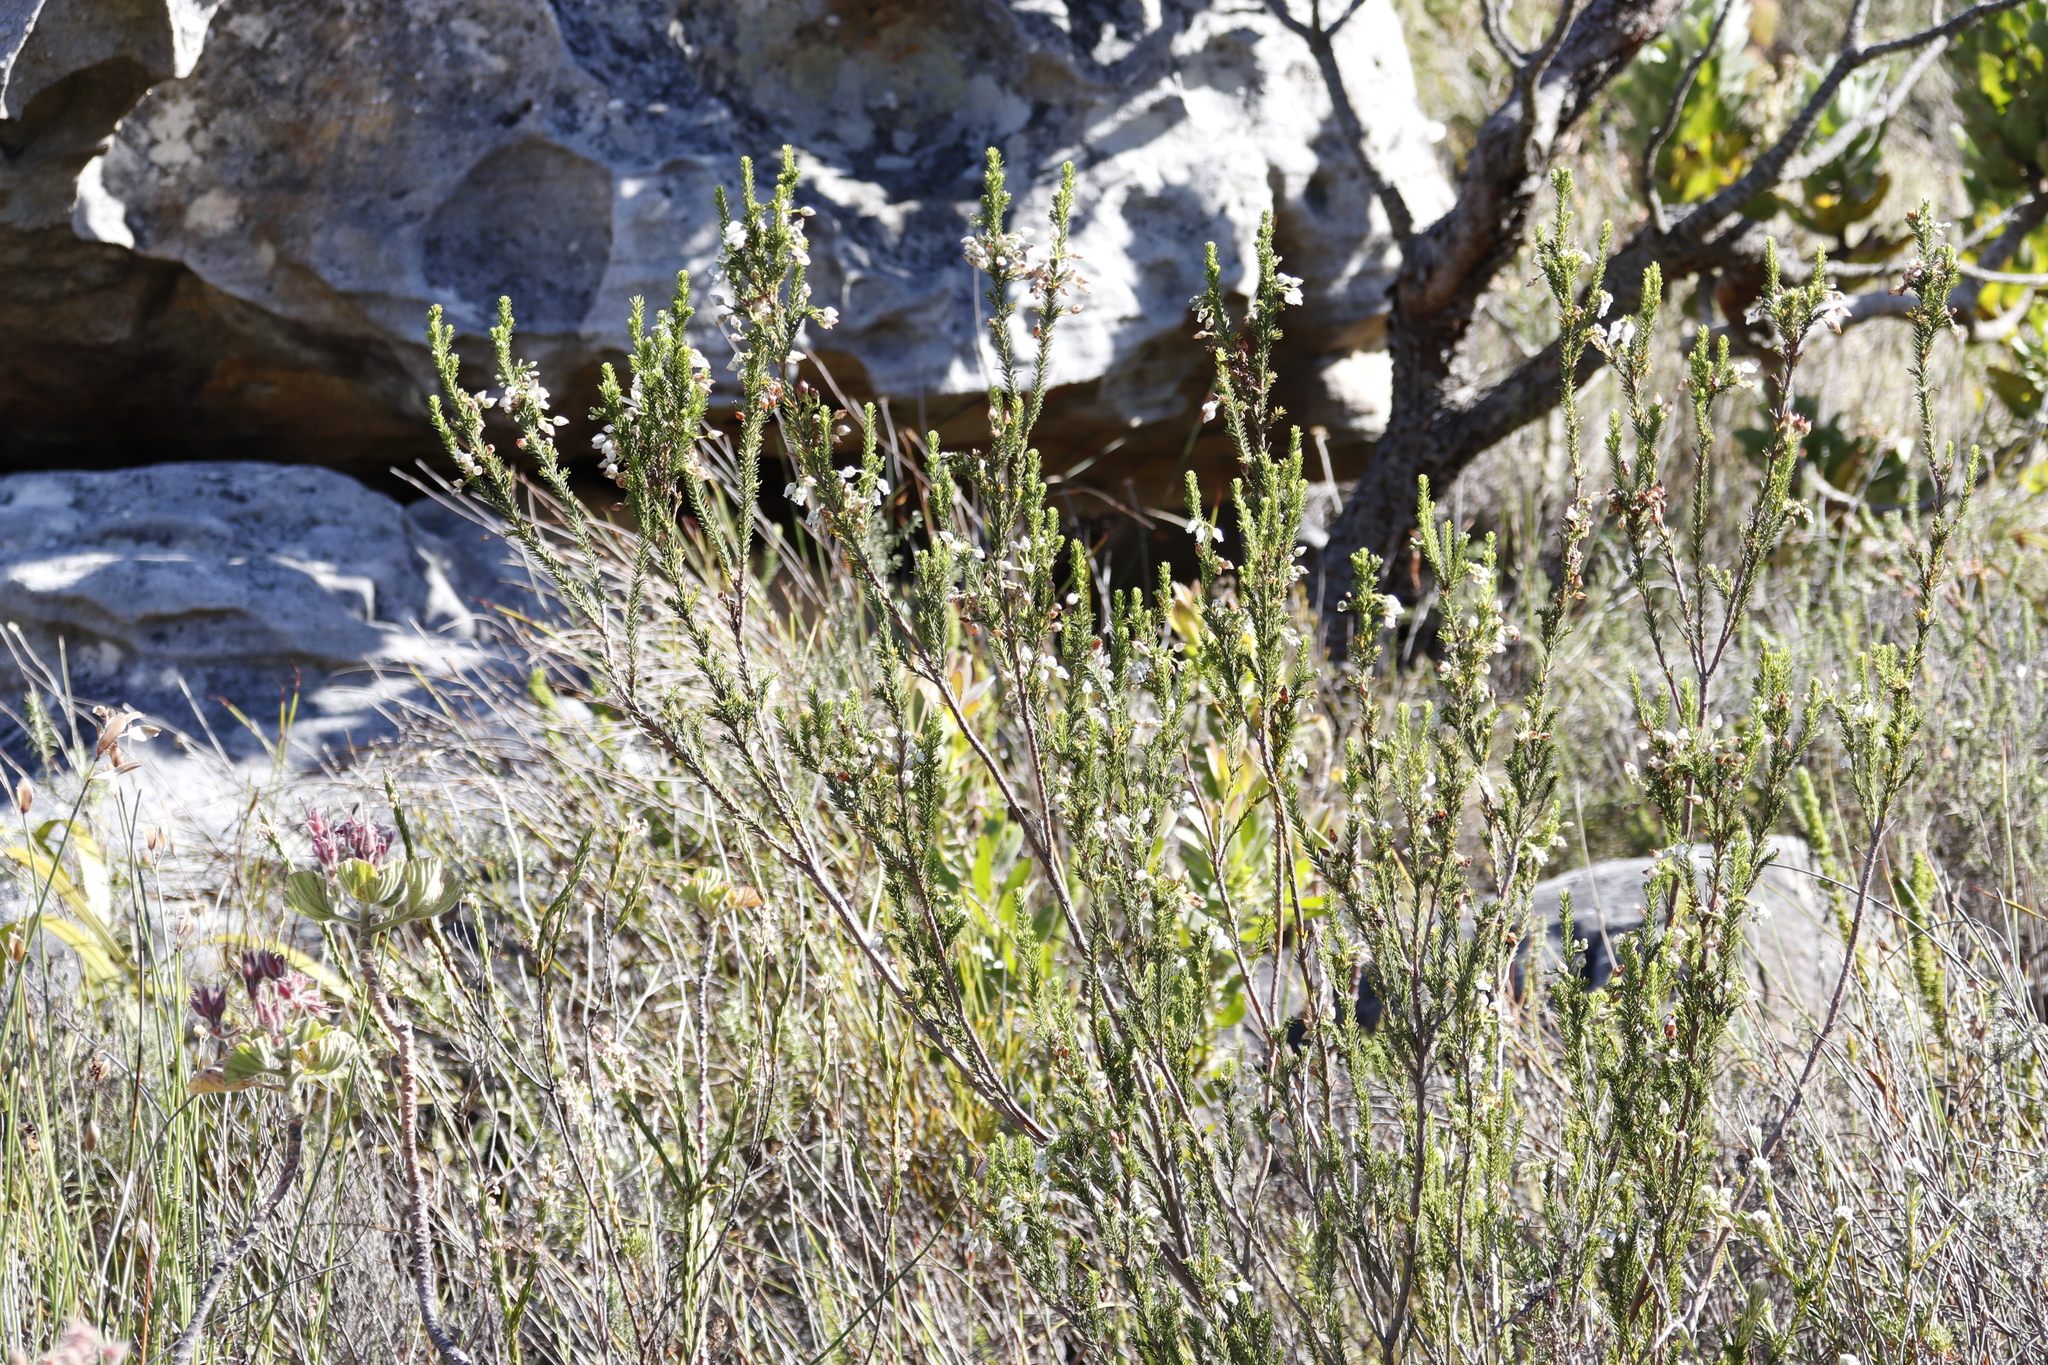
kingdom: Plantae
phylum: Tracheophyta
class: Magnoliopsida
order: Ericales
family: Ericaceae
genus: Erica
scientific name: Erica physodes
